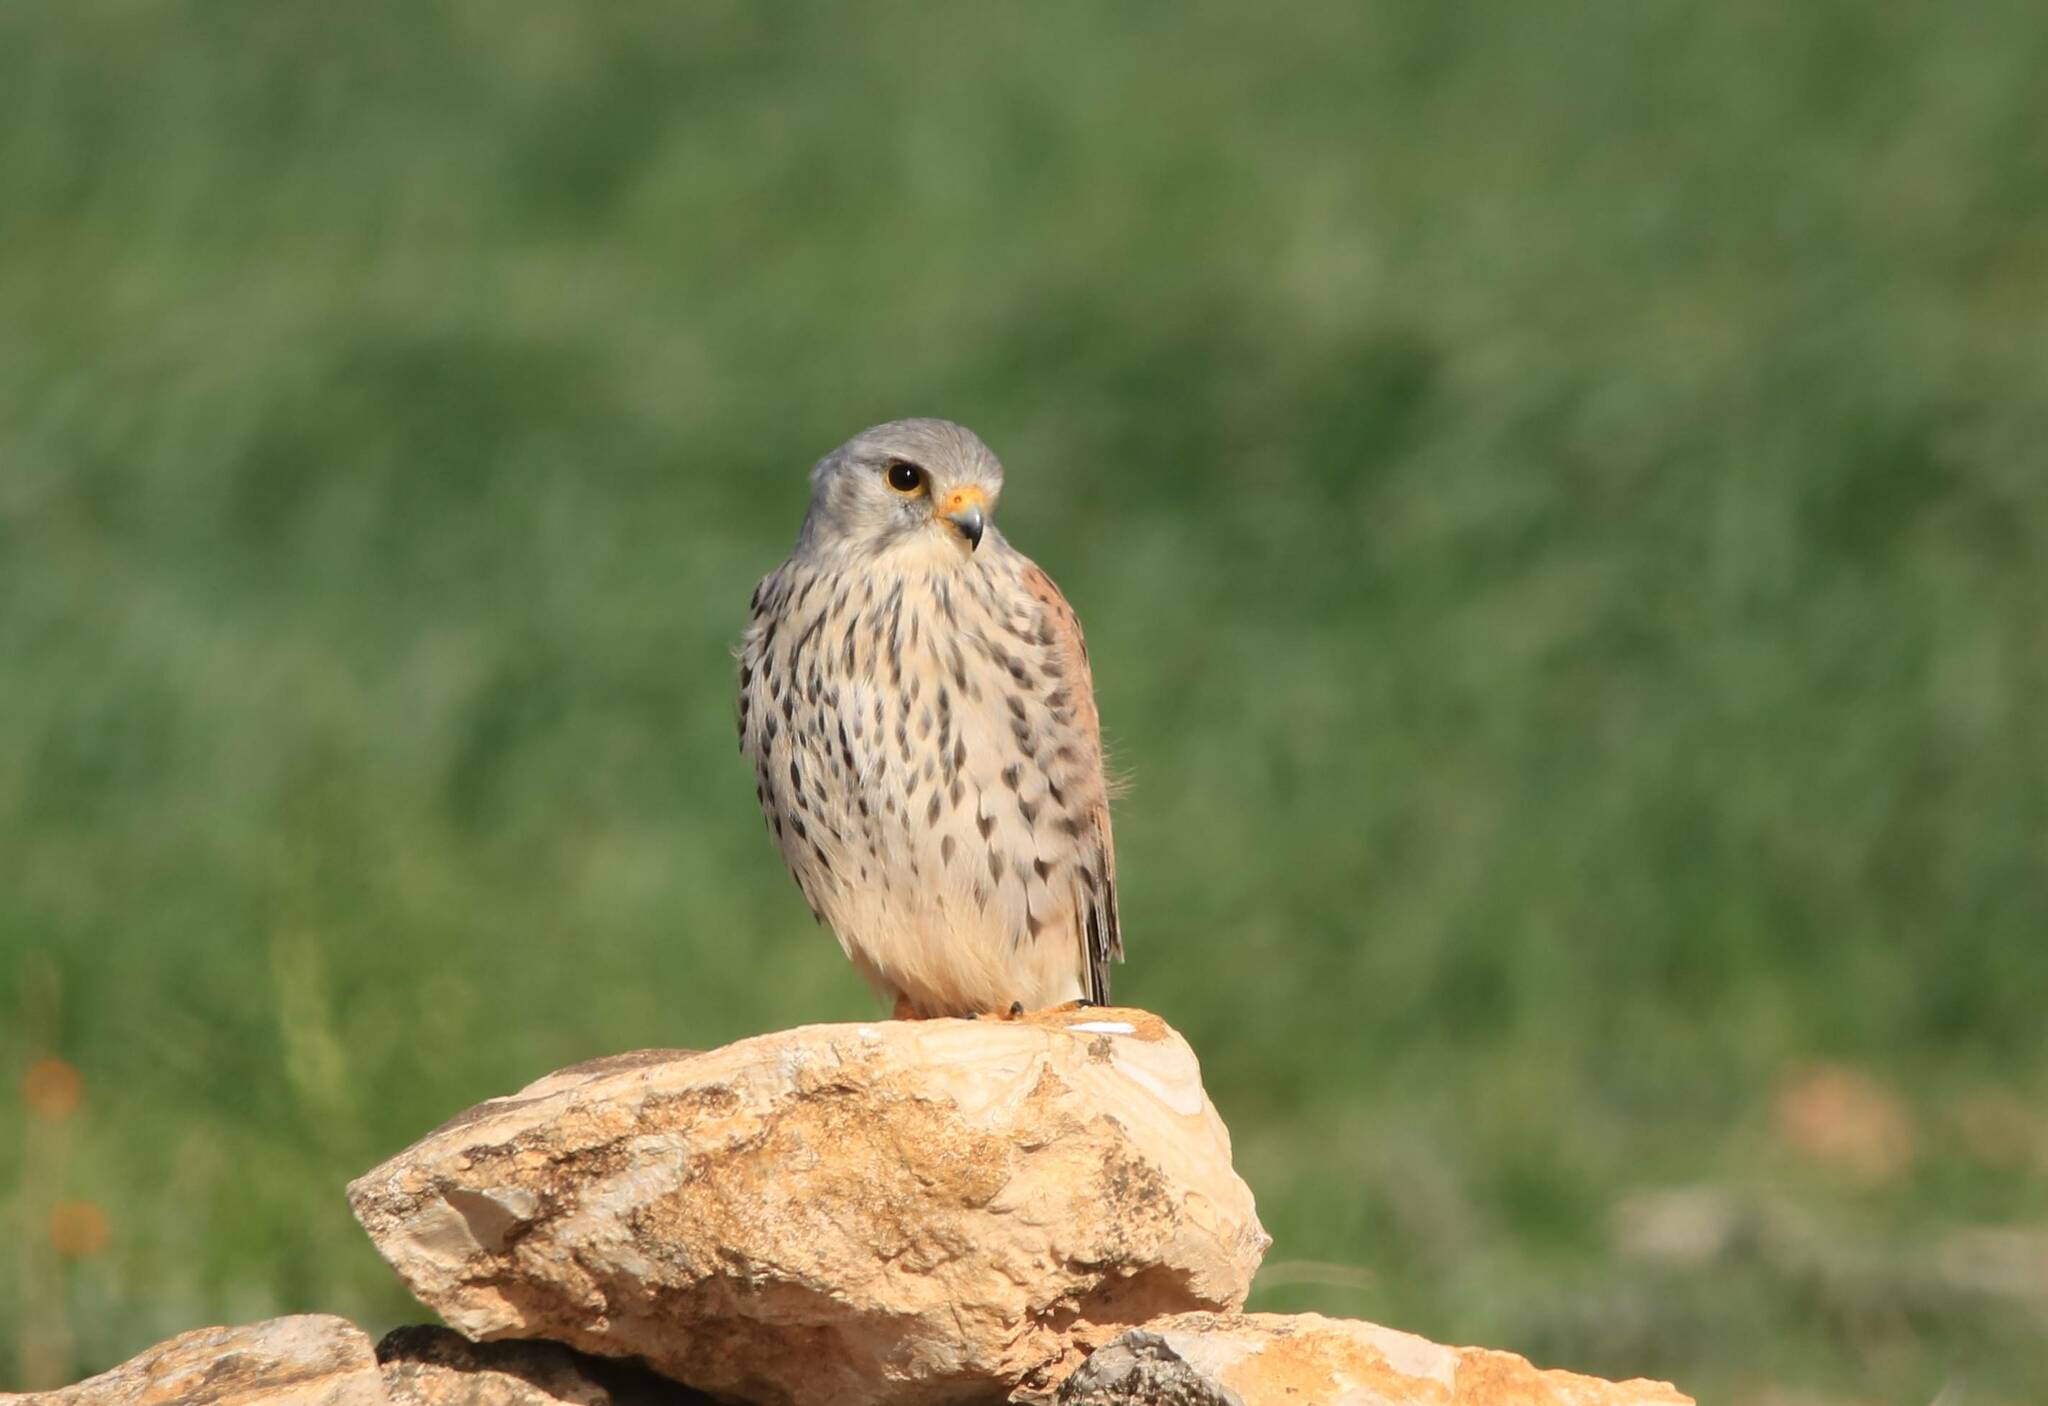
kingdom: Animalia
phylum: Chordata
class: Aves
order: Falconiformes
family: Falconidae
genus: Falco
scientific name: Falco tinnunculus
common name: Common kestrel
